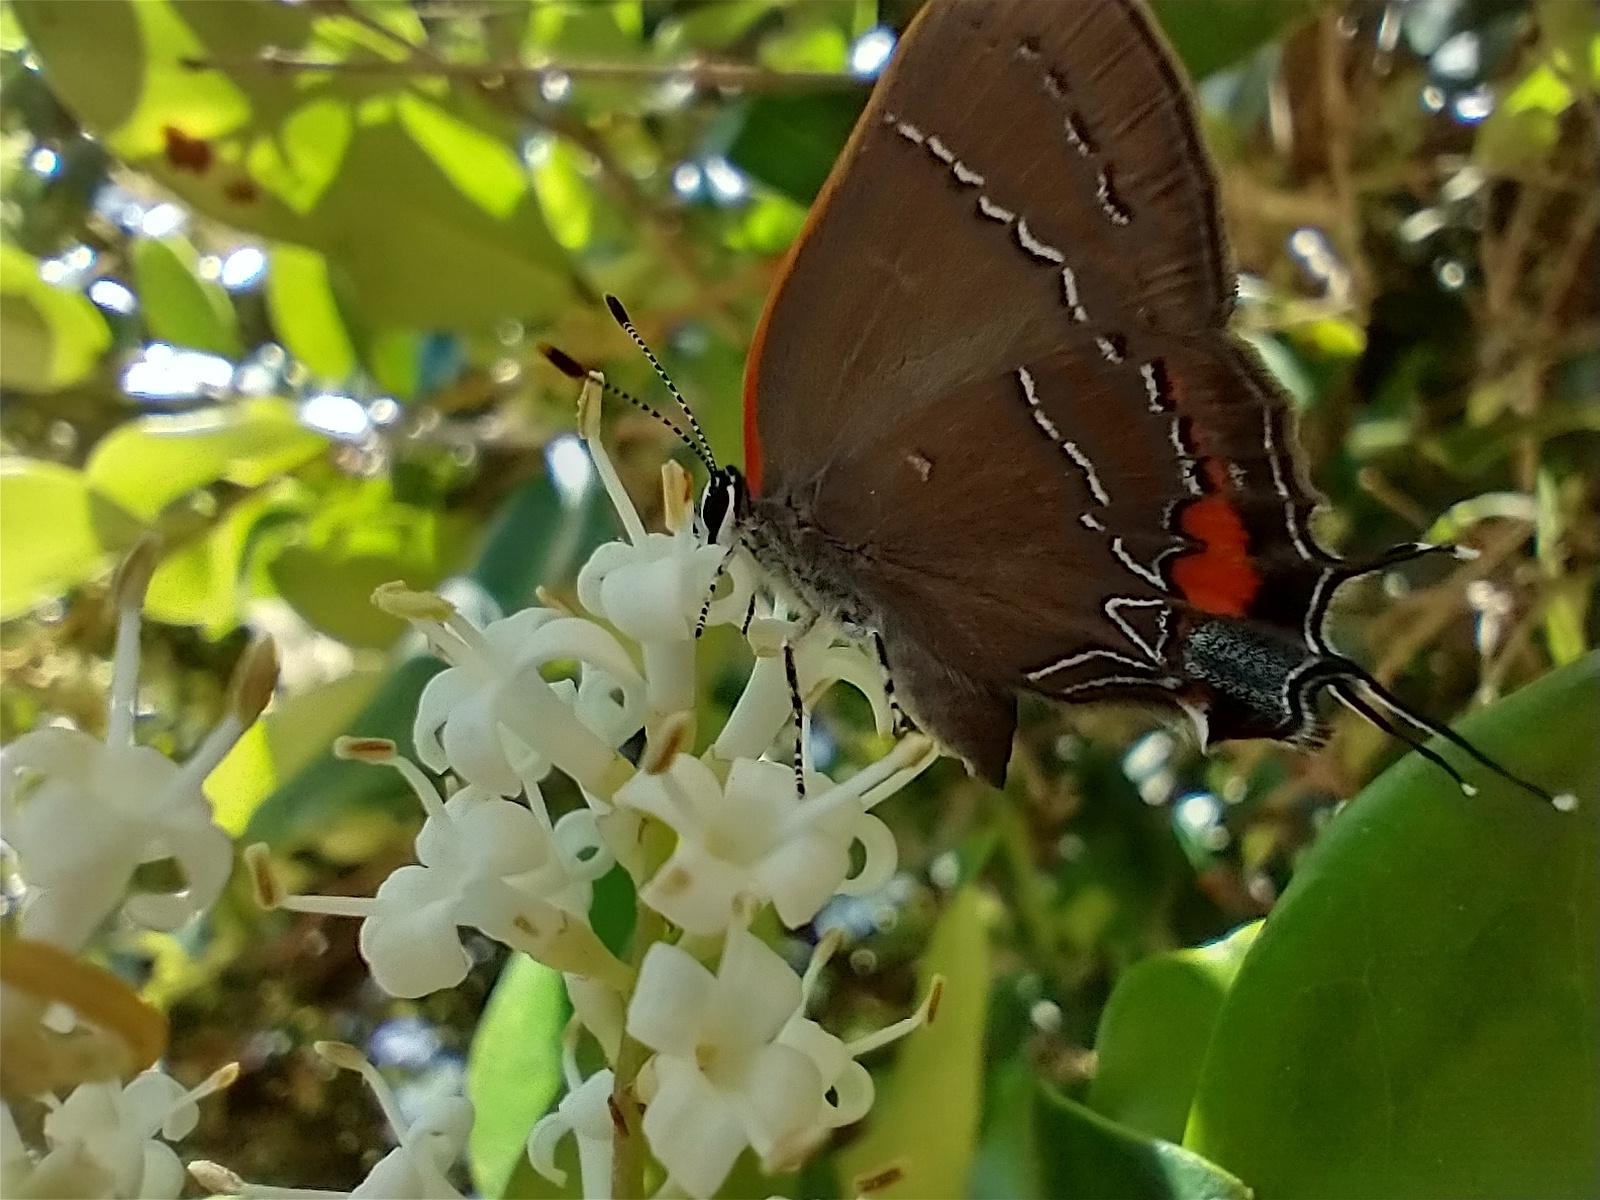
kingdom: Animalia
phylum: Arthropoda
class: Insecta
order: Lepidoptera
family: Lycaenidae
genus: Fixsenia
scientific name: Fixsenia favonius
